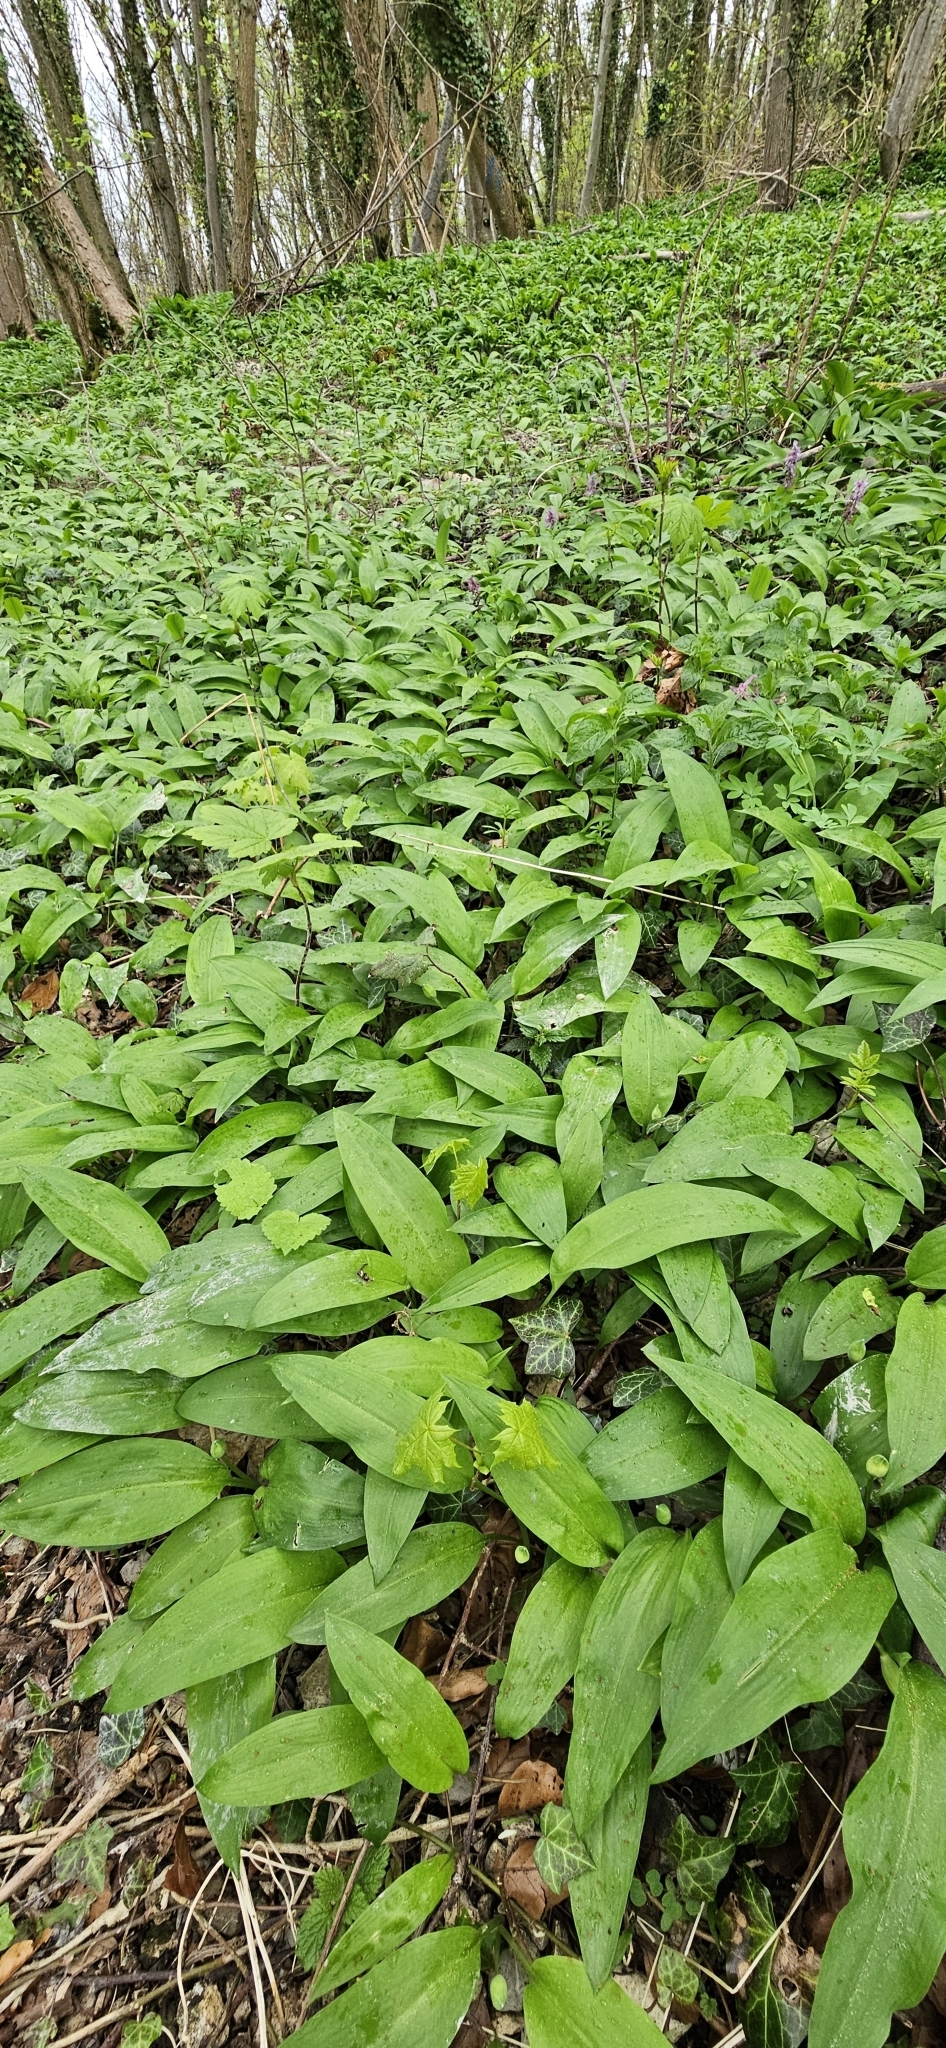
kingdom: Plantae
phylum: Tracheophyta
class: Liliopsida
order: Asparagales
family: Amaryllidaceae
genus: Allium
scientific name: Allium ursinum
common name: Ramsons
